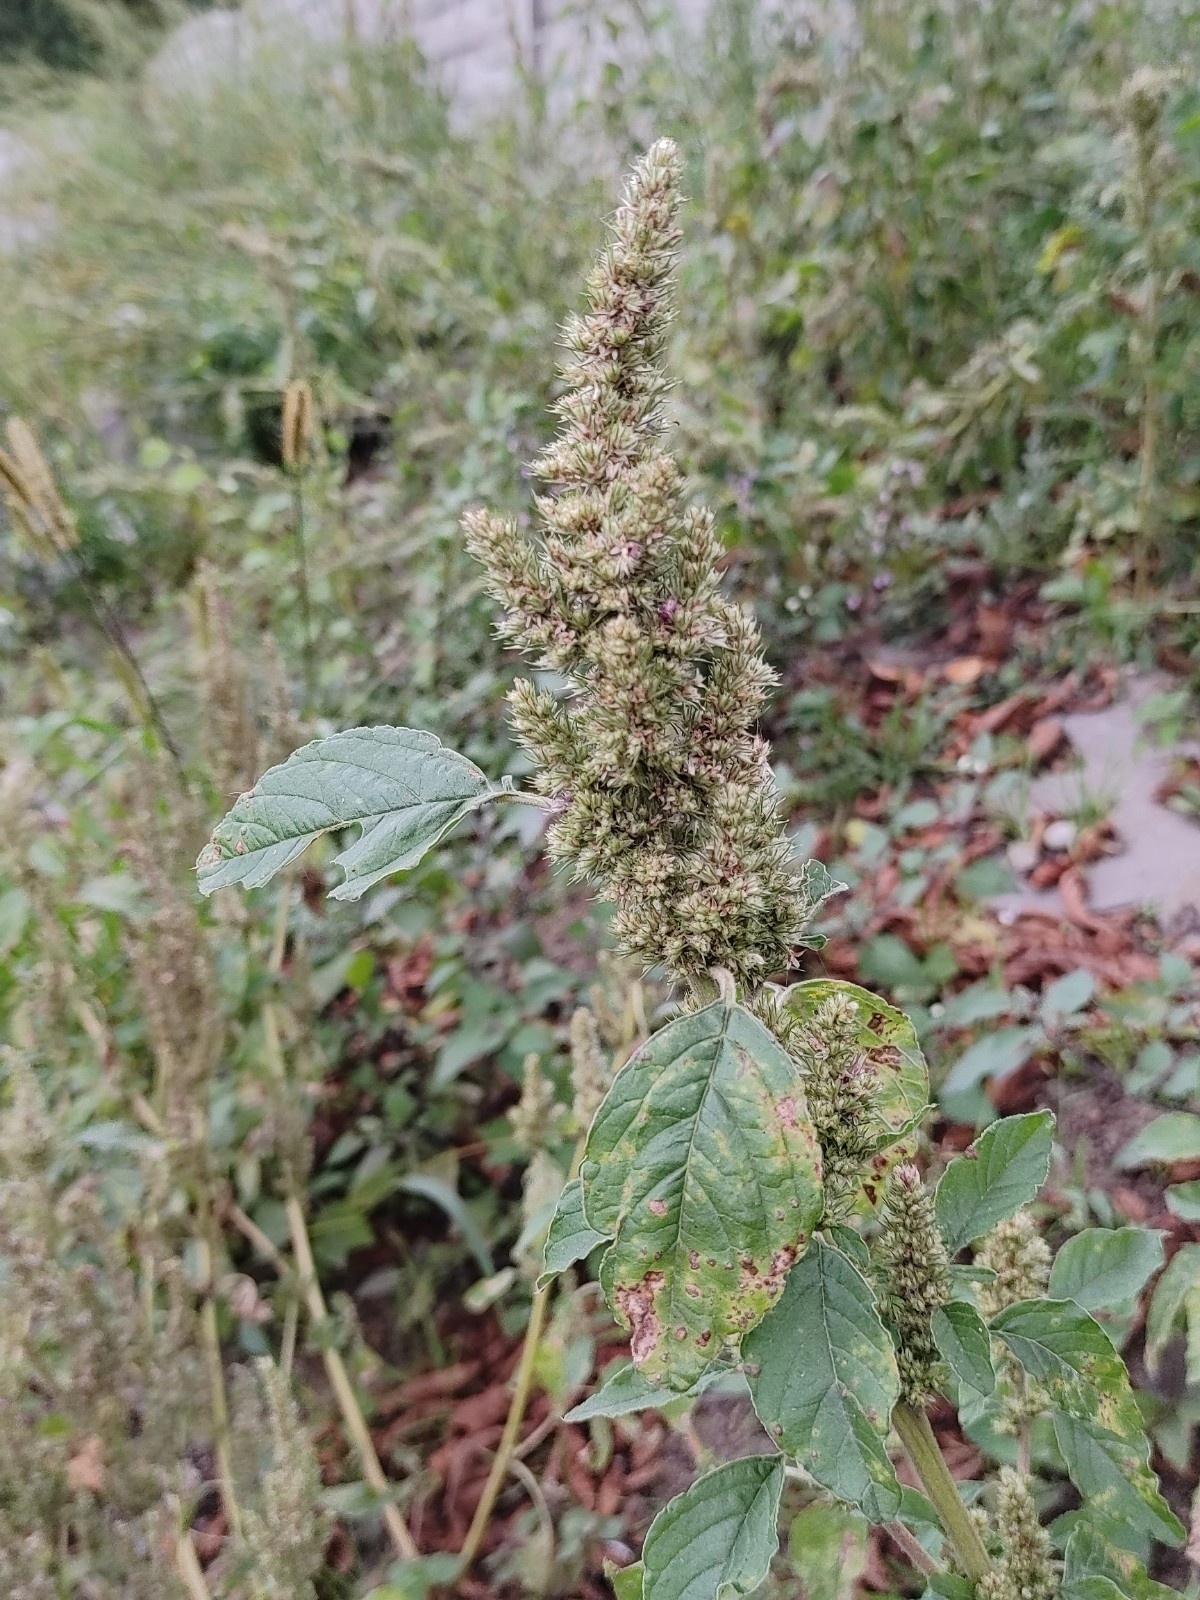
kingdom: Plantae
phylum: Tracheophyta
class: Magnoliopsida
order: Caryophyllales
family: Amaranthaceae
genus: Amaranthus
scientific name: Amaranthus retroflexus
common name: Redroot amaranth
